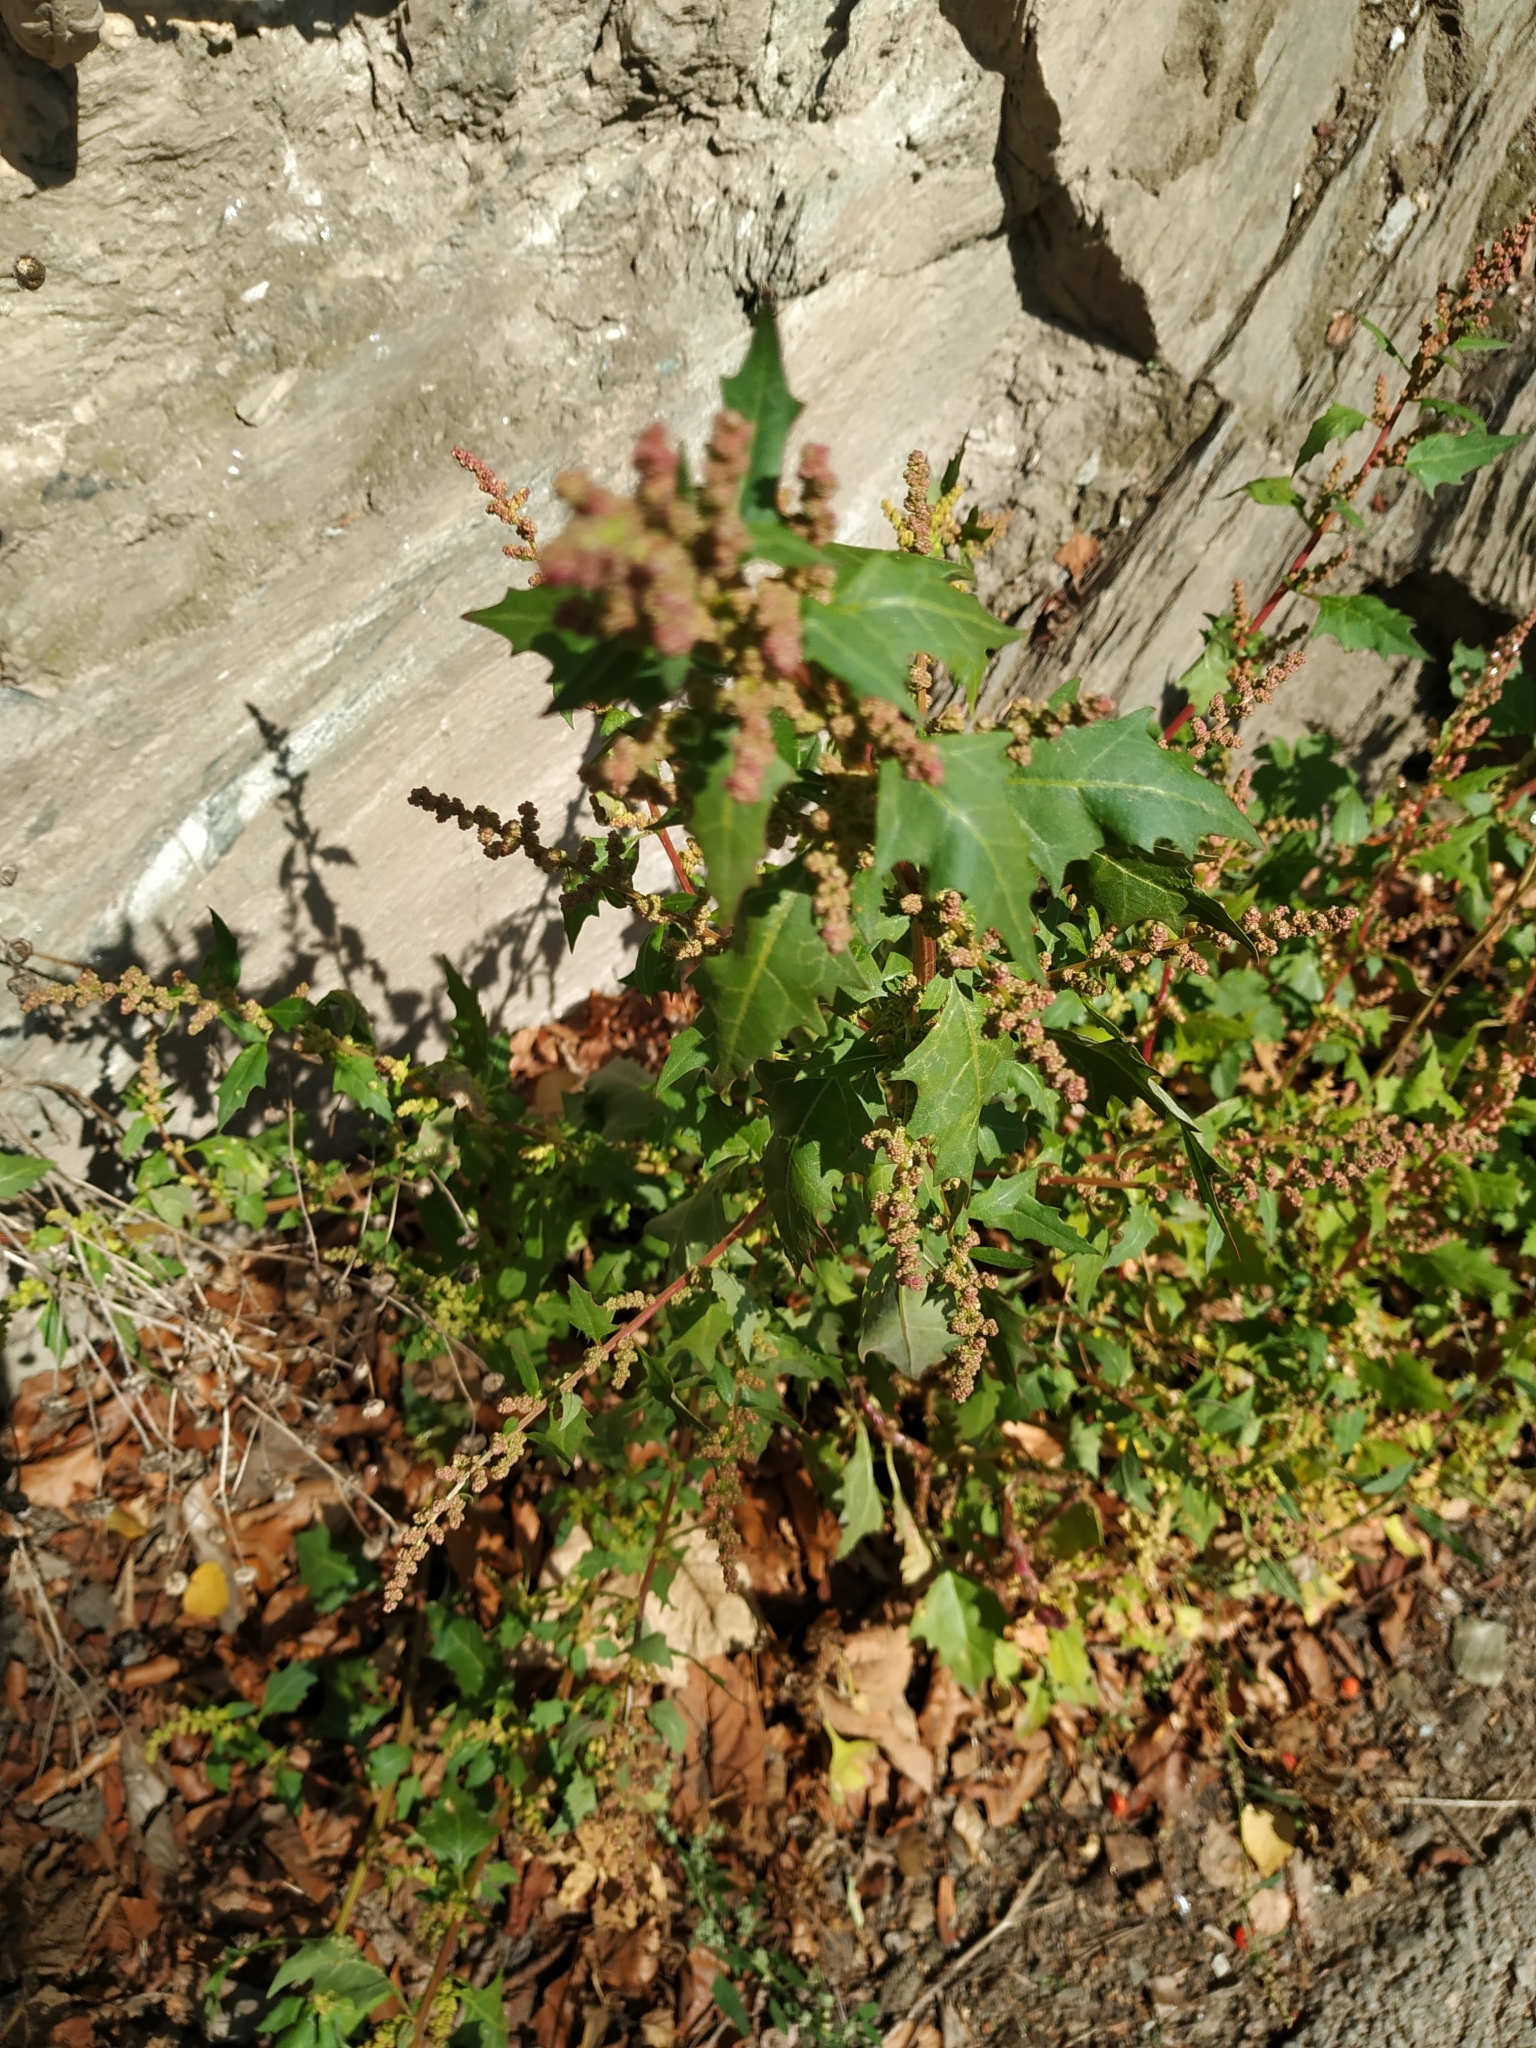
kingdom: Plantae
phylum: Tracheophyta
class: Magnoliopsida
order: Caryophyllales
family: Amaranthaceae
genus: Oxybasis
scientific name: Oxybasis rubra
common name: Red goosefoot
